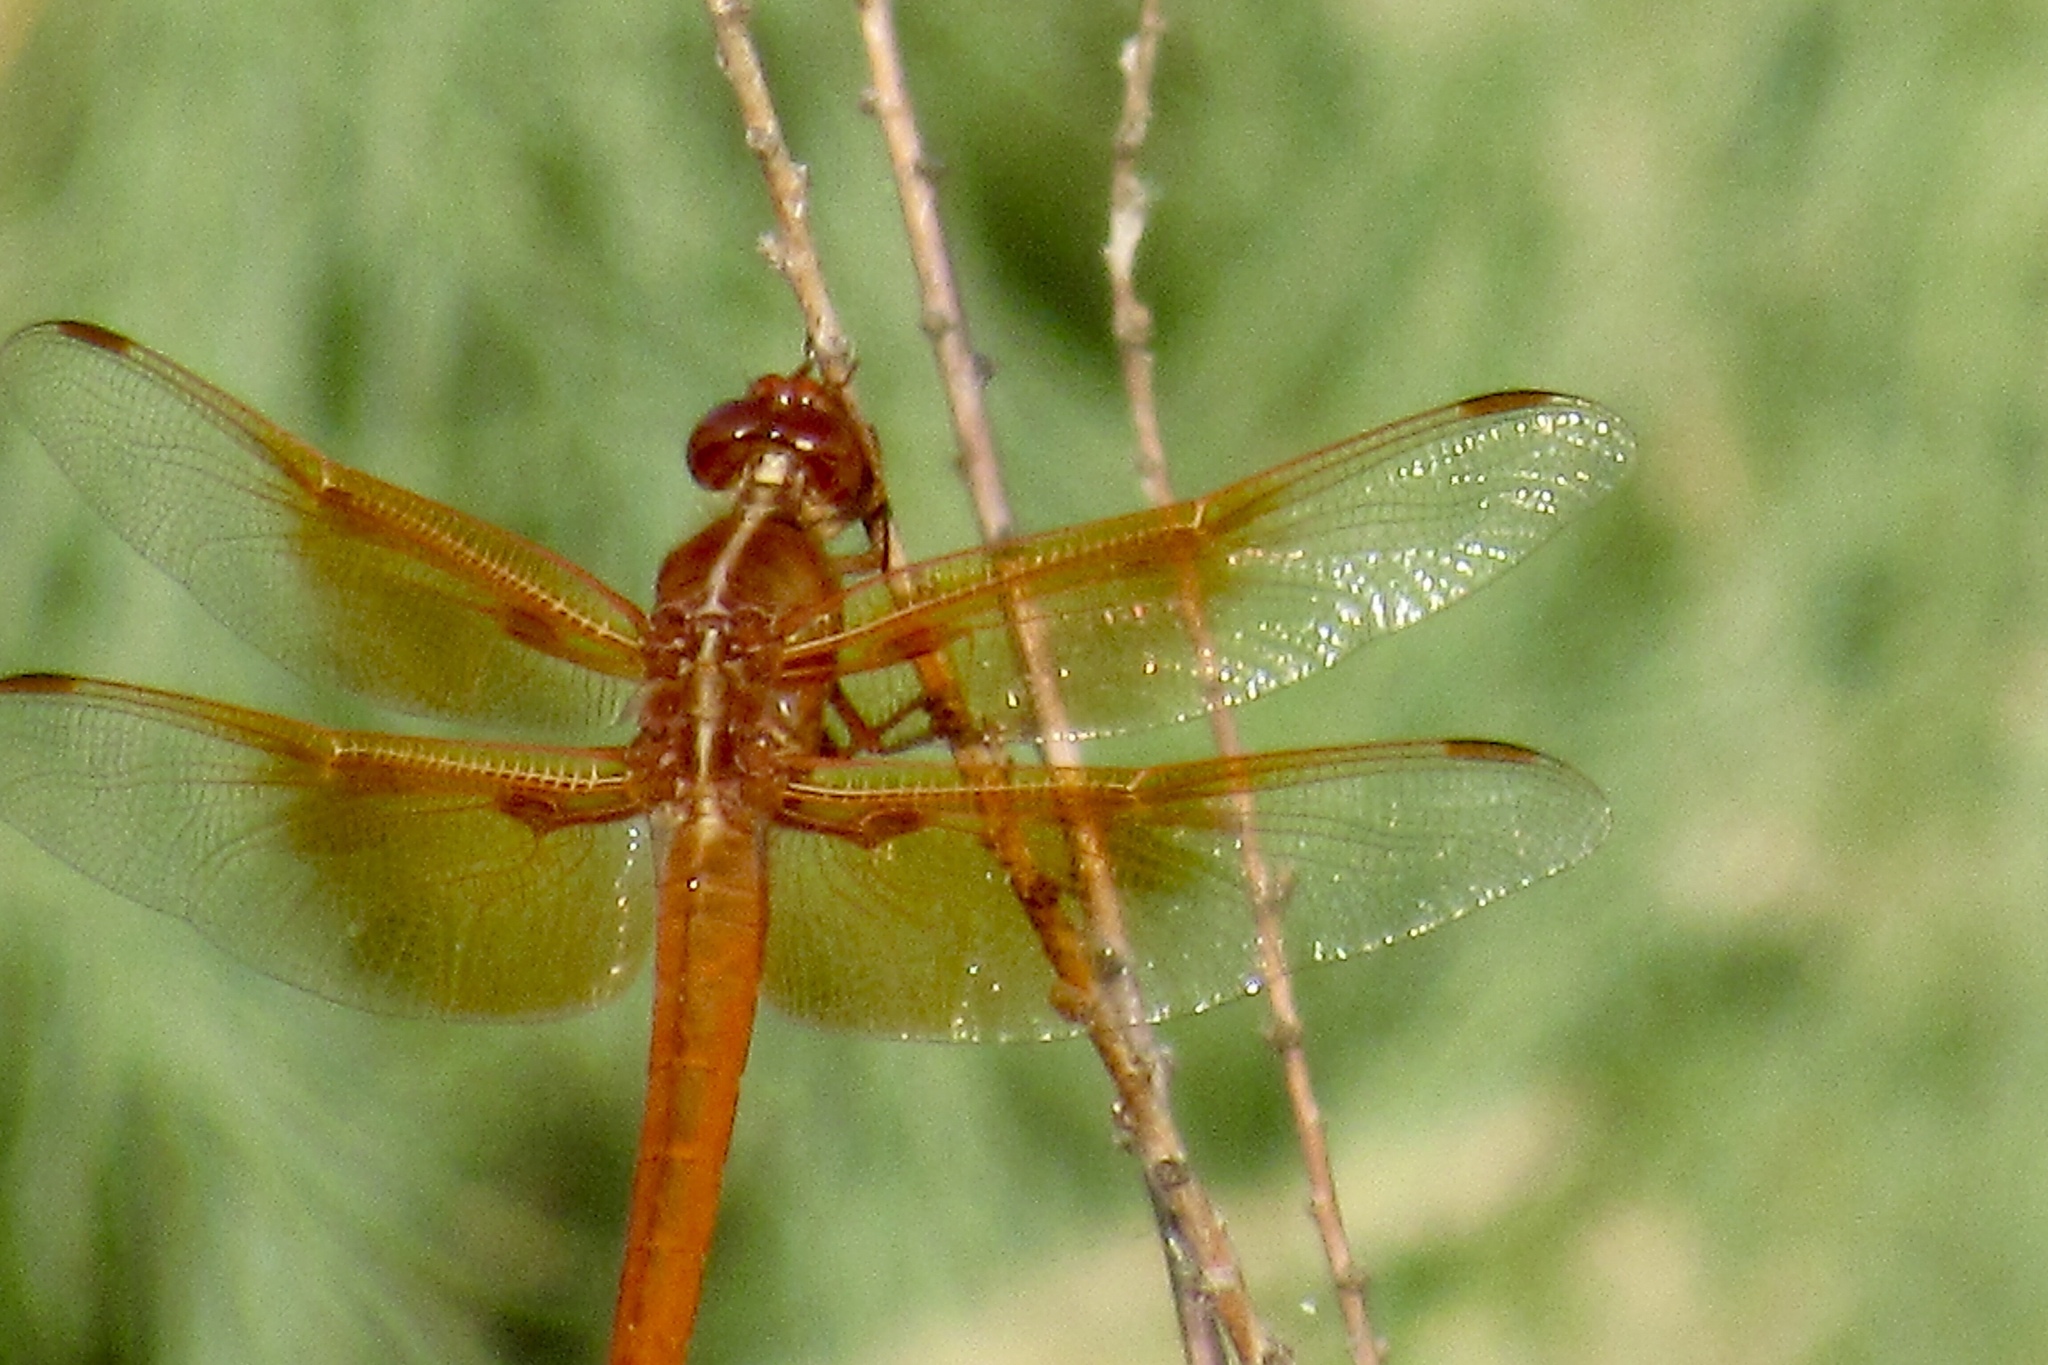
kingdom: Animalia
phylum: Arthropoda
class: Insecta
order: Odonata
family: Libellulidae
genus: Libellula
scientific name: Libellula saturata
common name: Flame skimmer
